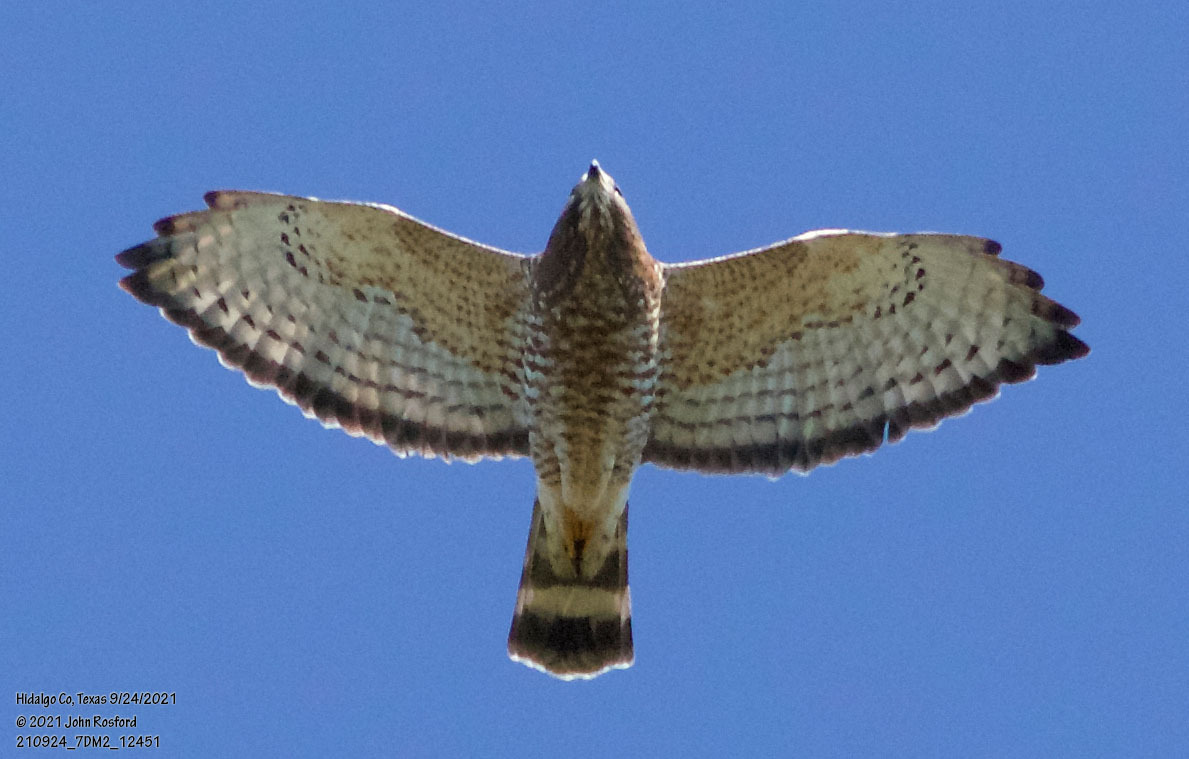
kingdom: Animalia
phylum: Chordata
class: Aves
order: Accipitriformes
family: Accipitridae
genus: Buteo
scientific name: Buteo platypterus
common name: Broad-winged hawk
